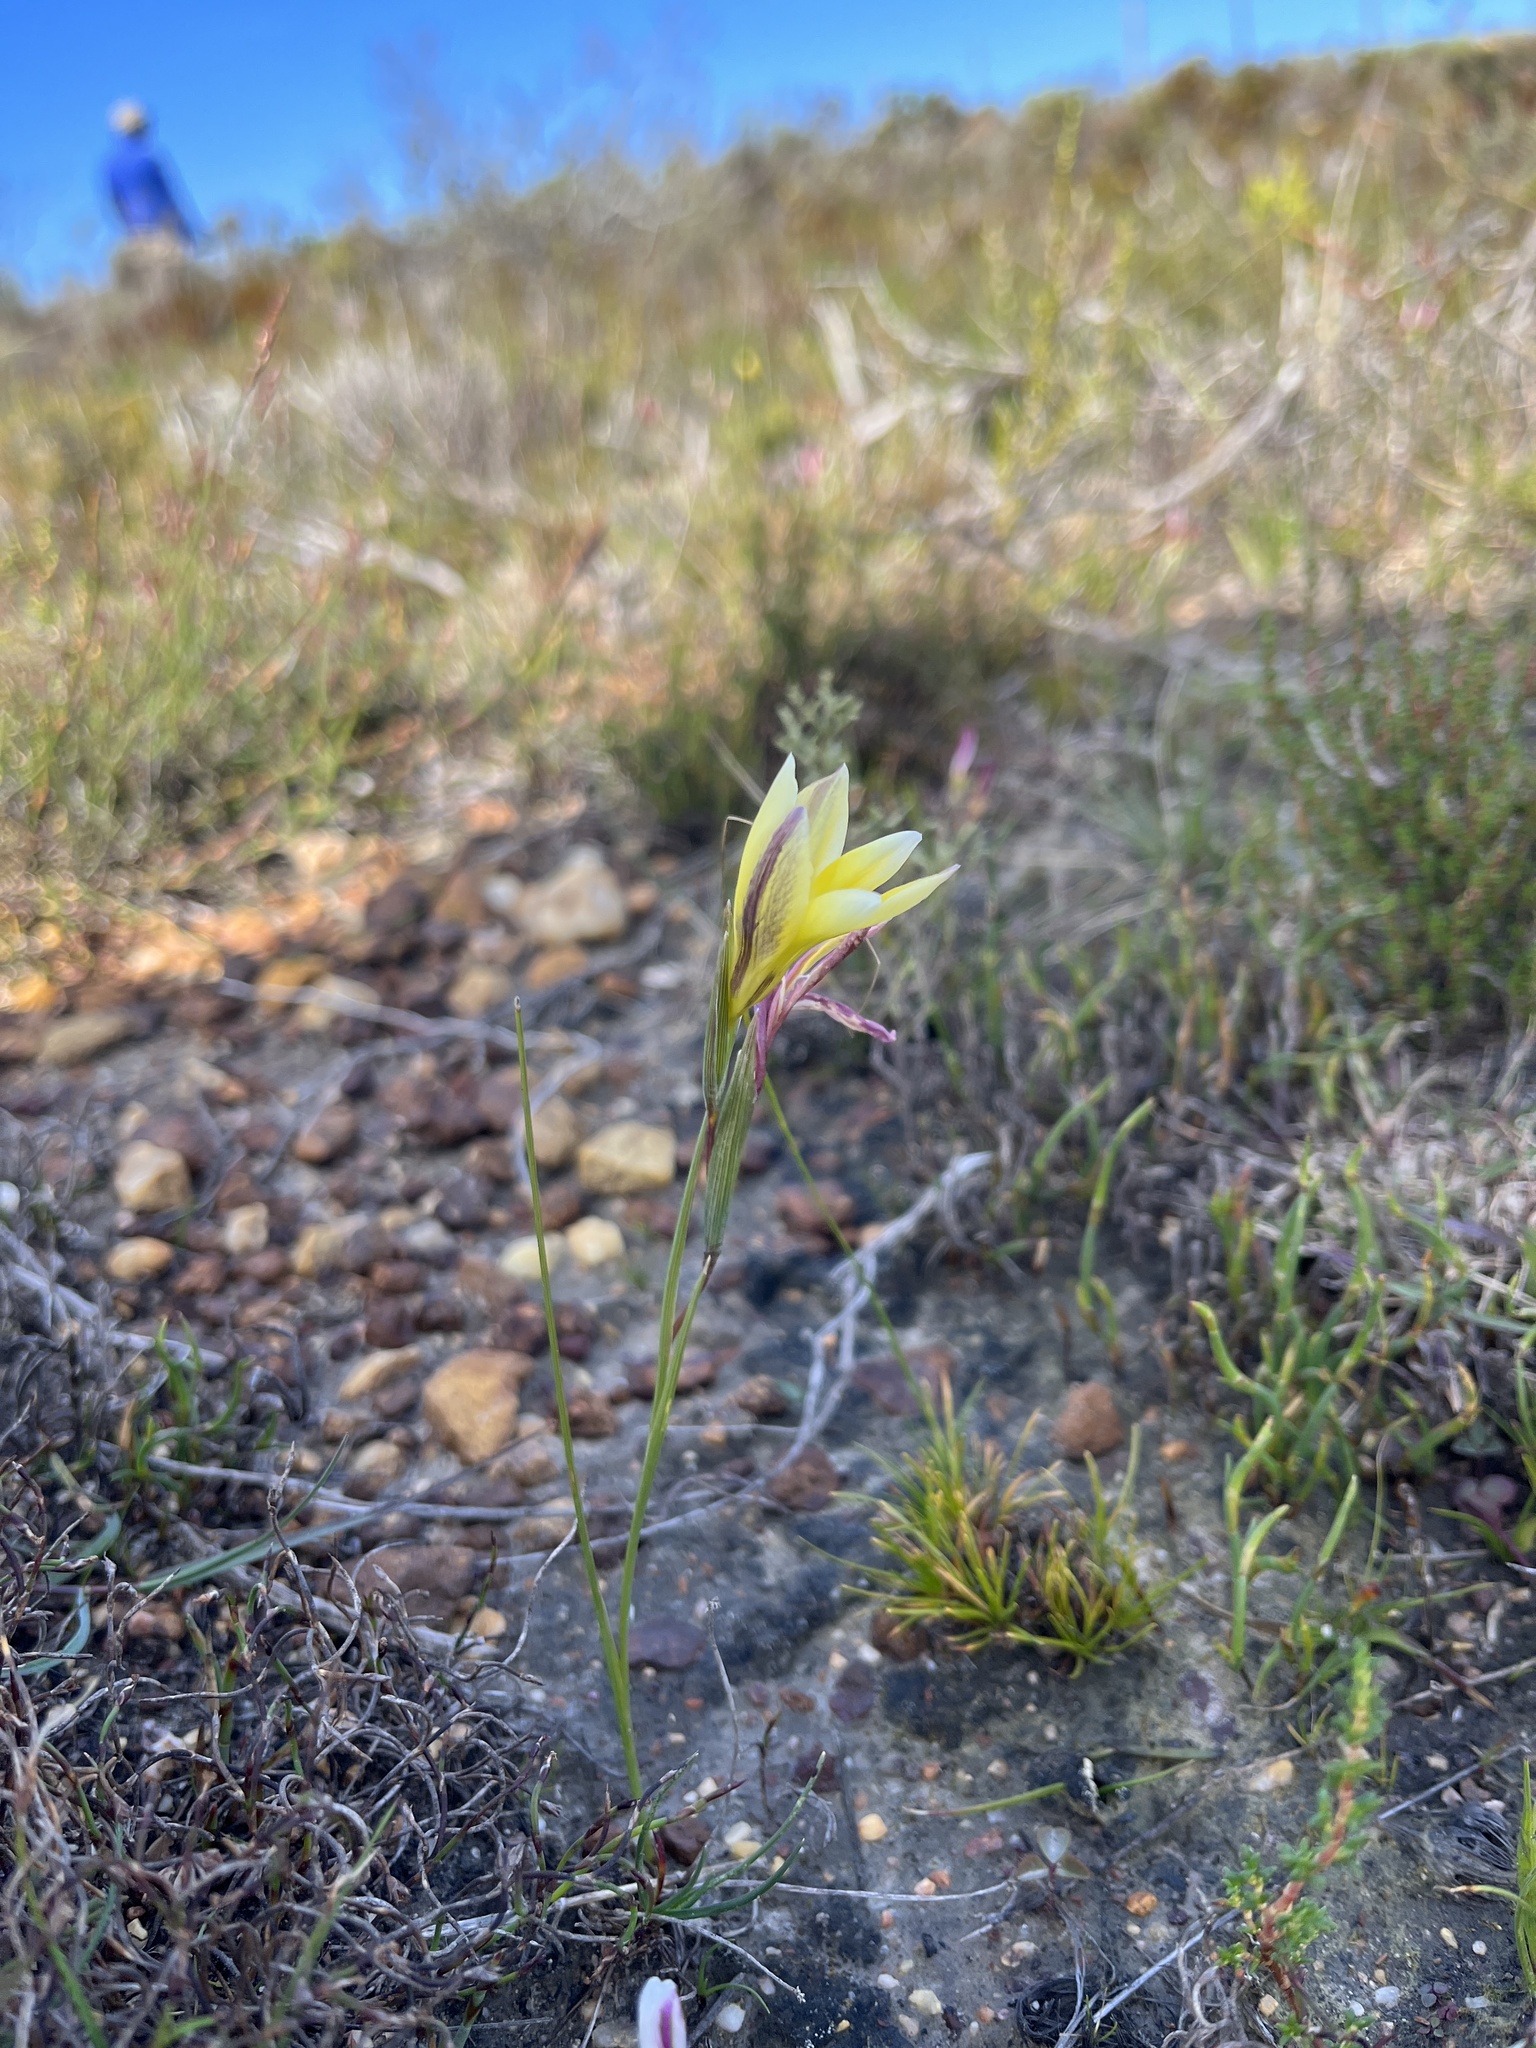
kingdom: Plantae
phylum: Tracheophyta
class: Liliopsida
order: Asparagales
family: Iridaceae
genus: Gladiolus
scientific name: Gladiolus trichonemifolius
